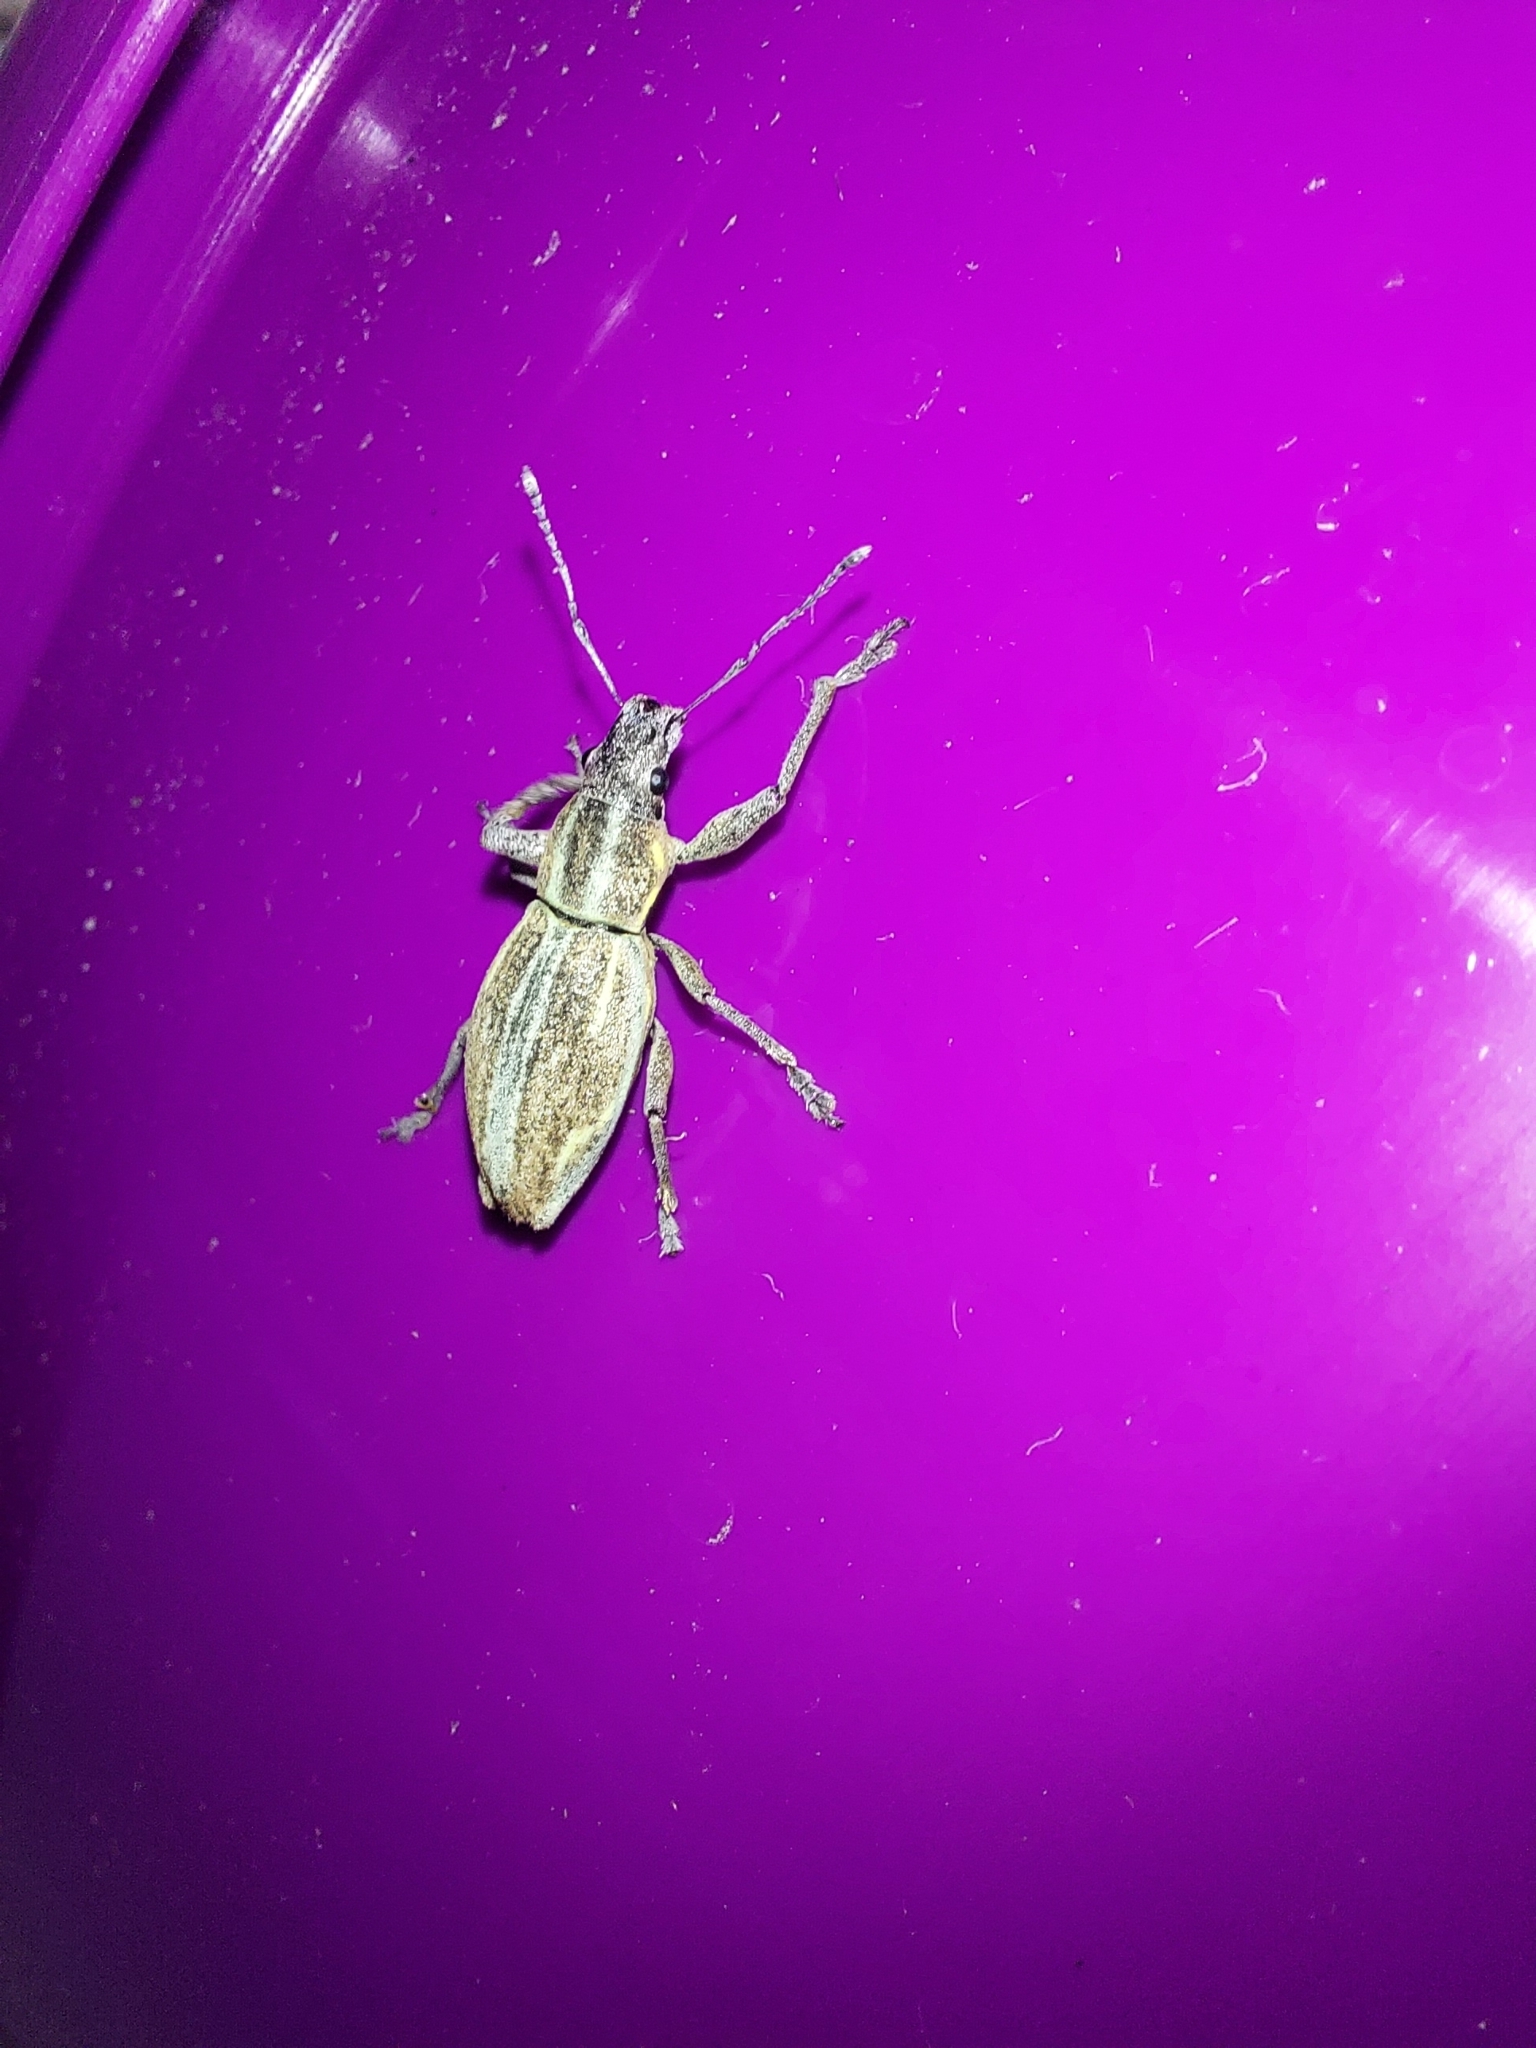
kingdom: Animalia
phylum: Arthropoda
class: Insecta
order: Coleoptera
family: Curculionidae
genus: Naupactus
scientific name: Naupactus xanthographus
